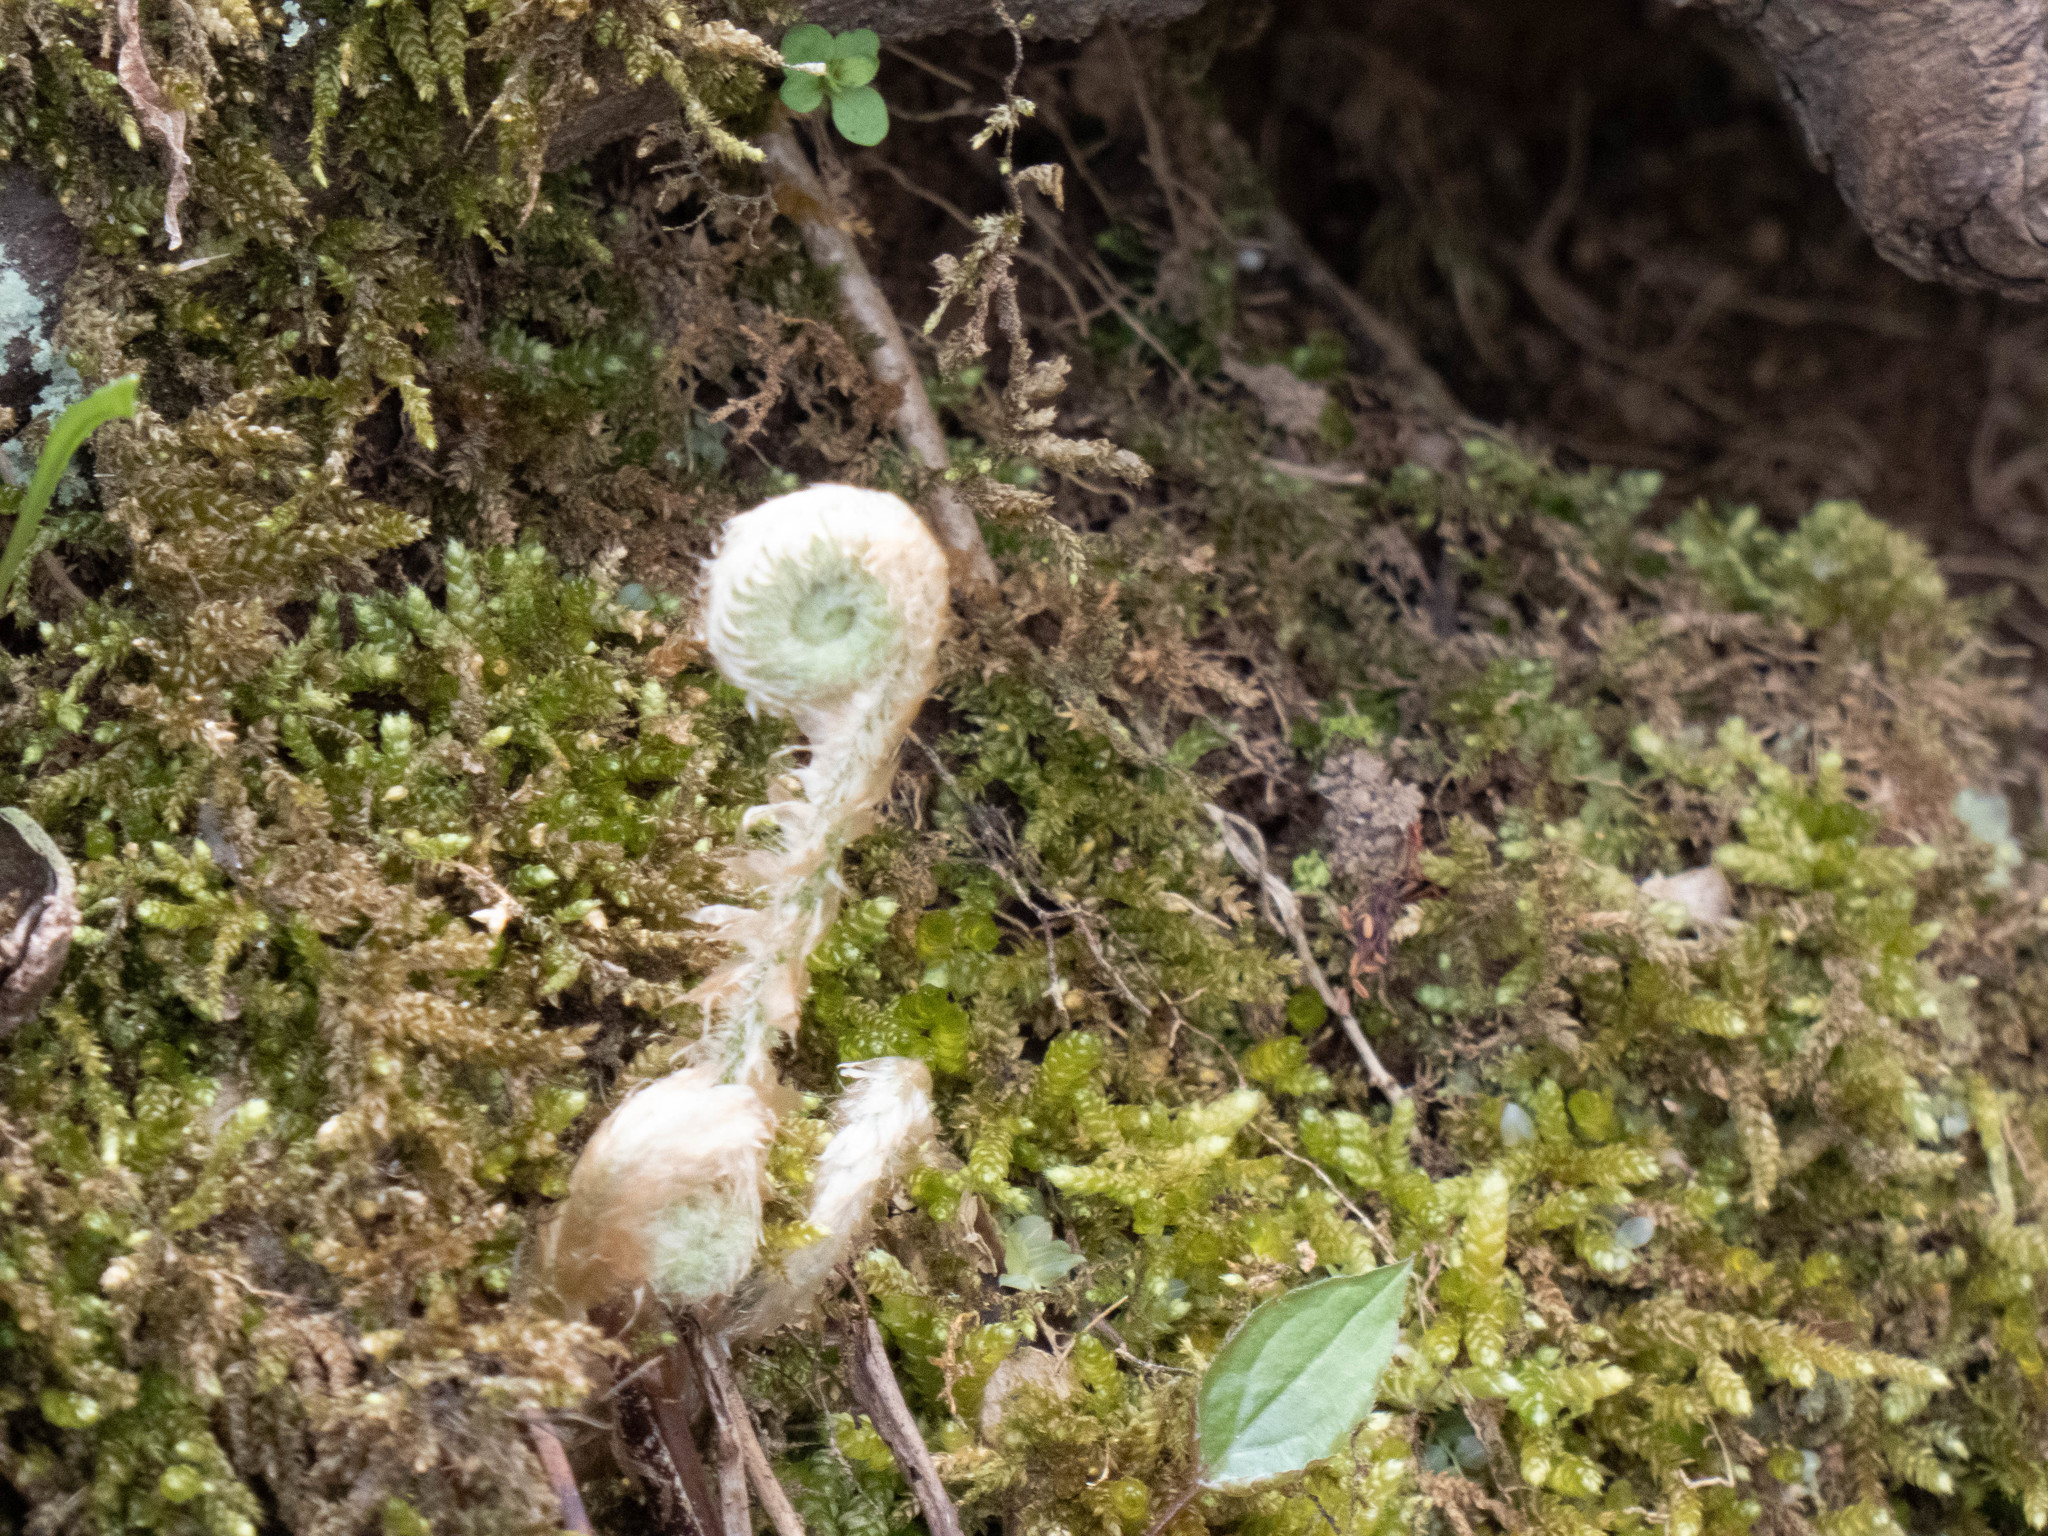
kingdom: Plantae
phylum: Tracheophyta
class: Polypodiopsida
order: Polypodiales
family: Dryopteridaceae
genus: Polystichum
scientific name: Polystichum acrostichoides
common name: Christmas fern
